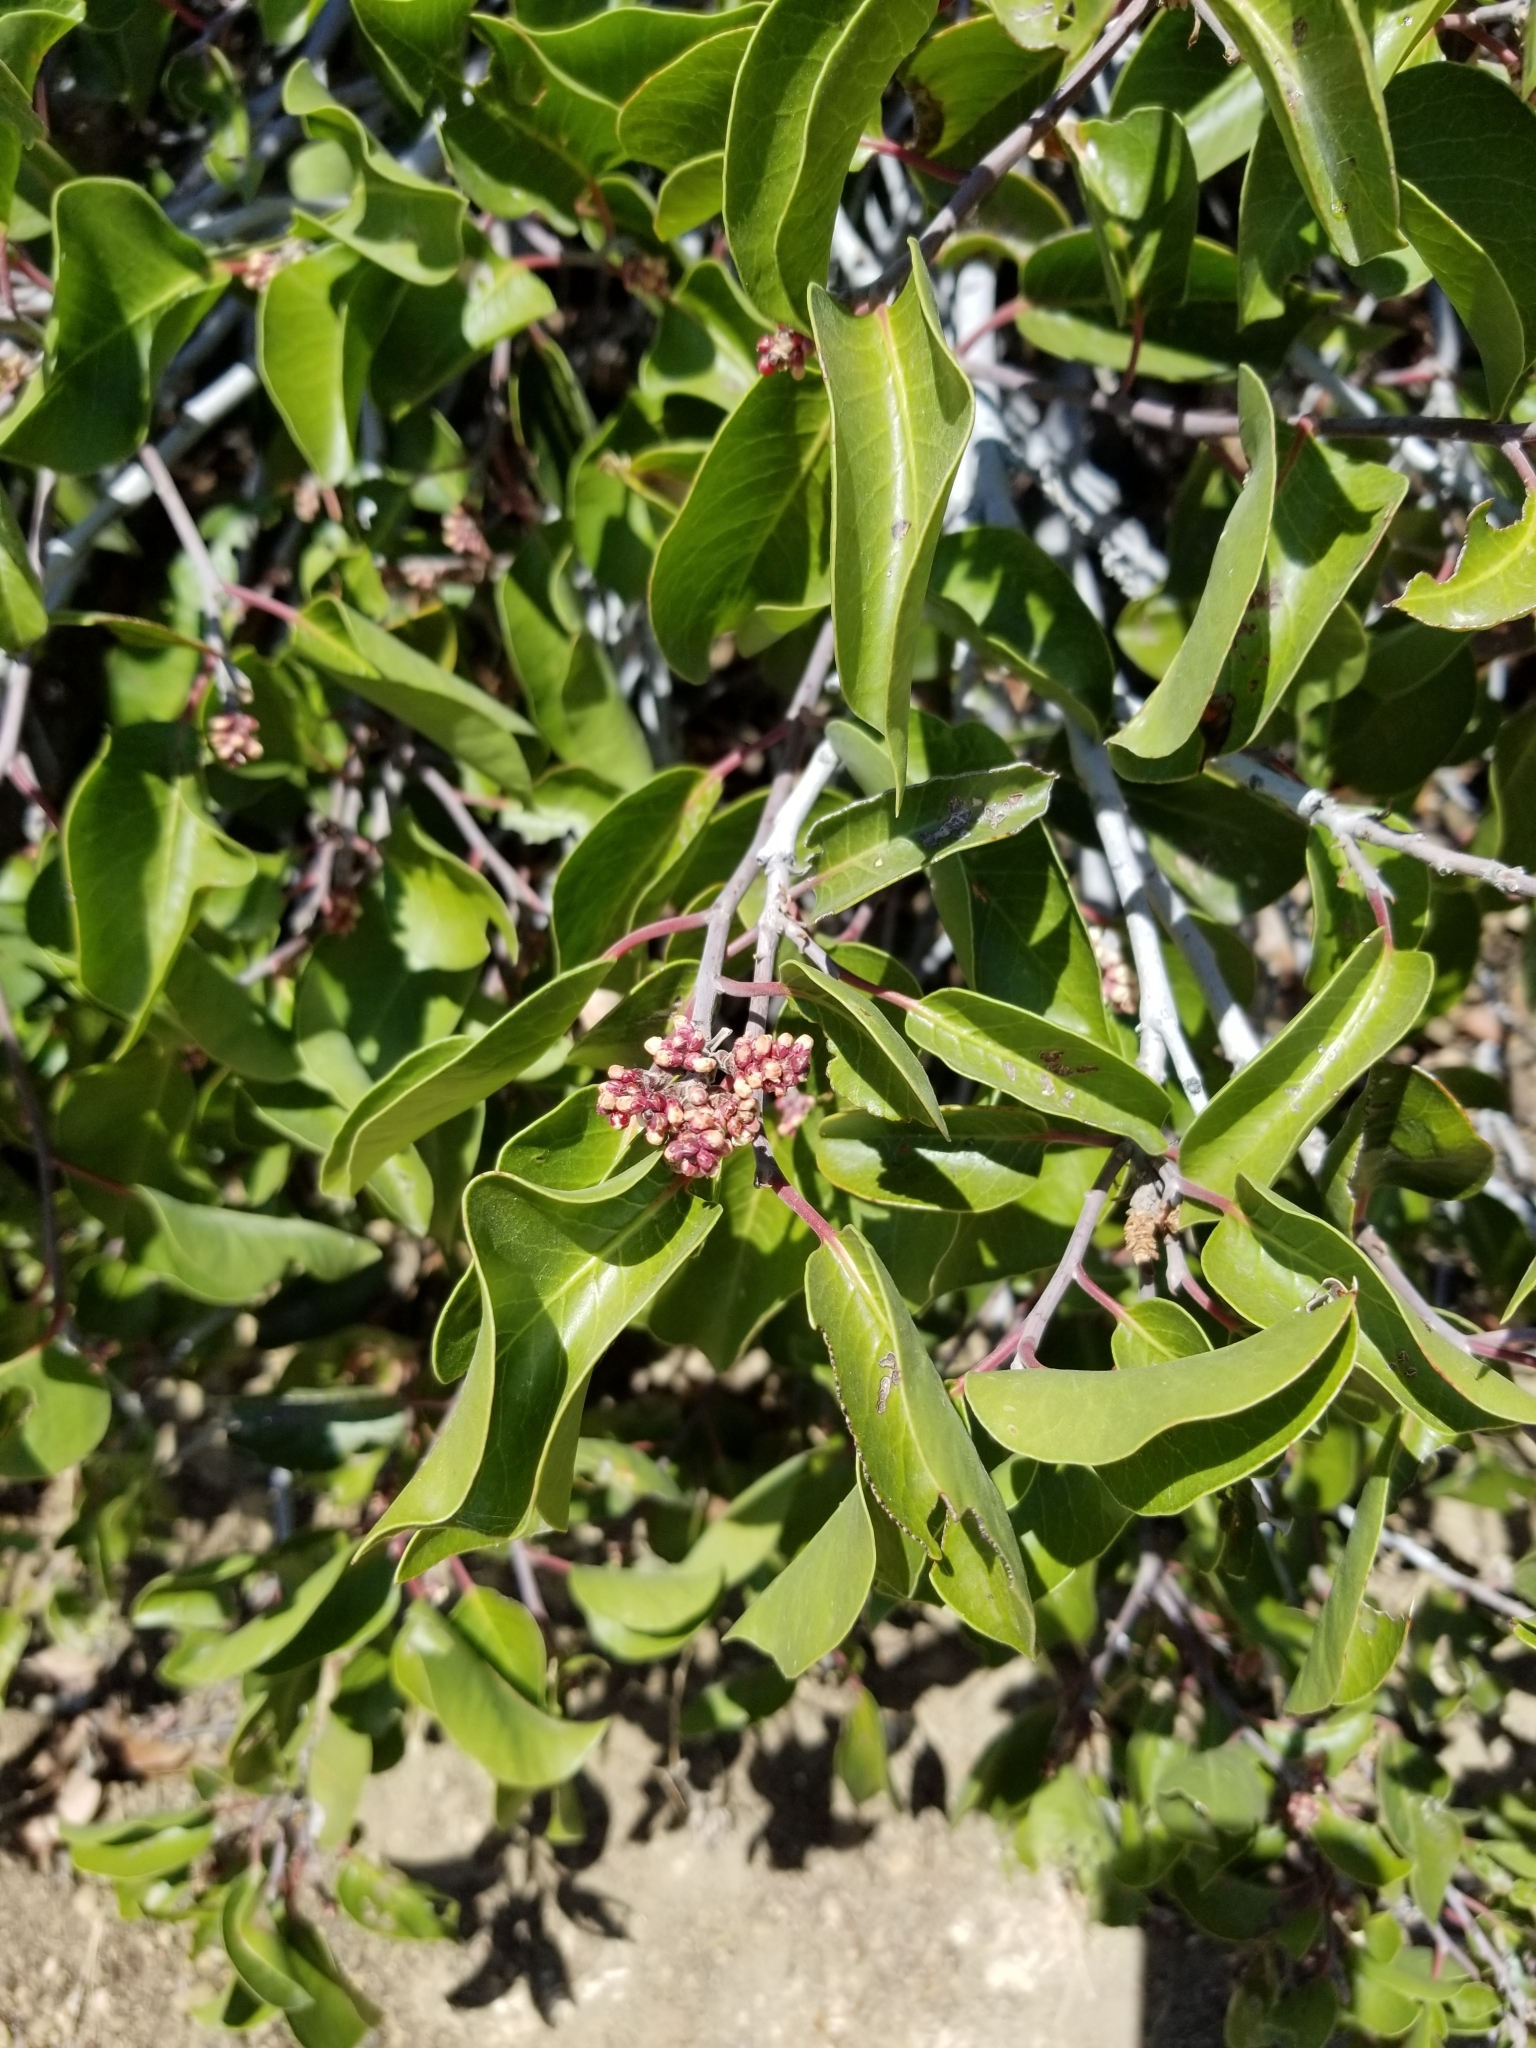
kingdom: Plantae
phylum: Tracheophyta
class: Magnoliopsida
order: Sapindales
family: Anacardiaceae
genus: Rhus
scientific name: Rhus ovata
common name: Sugar sumac
